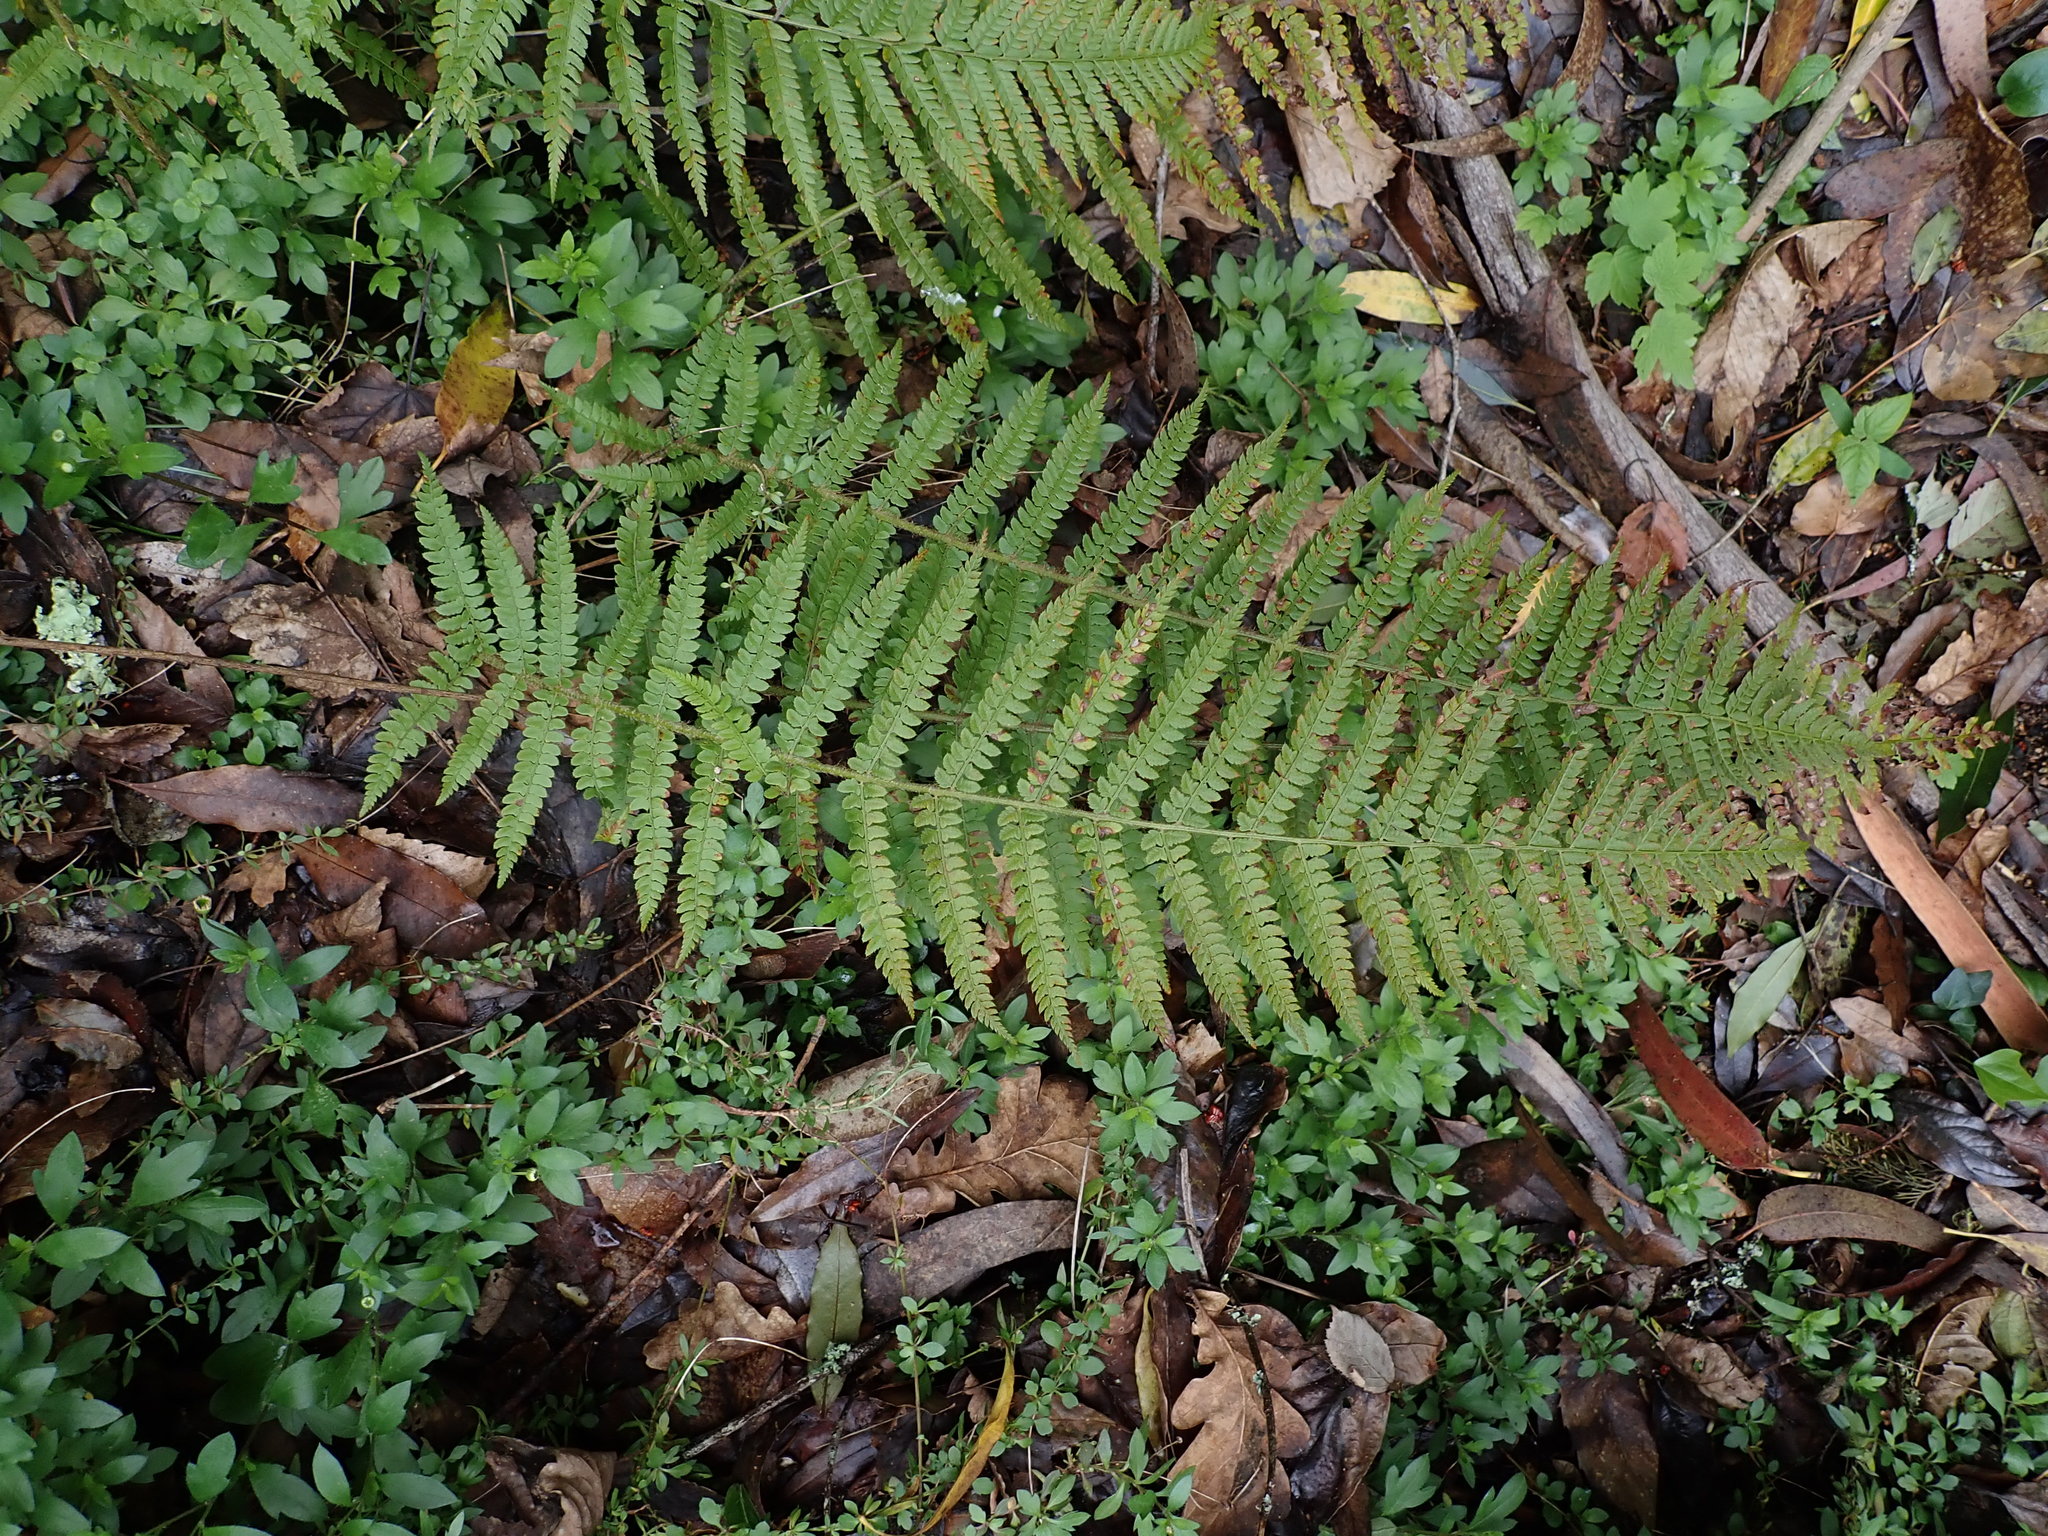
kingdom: Plantae
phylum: Tracheophyta
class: Polypodiopsida
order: Polypodiales
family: Dryopteridaceae
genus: Polystichum
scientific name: Polystichum setiferum
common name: Soft shield-fern
